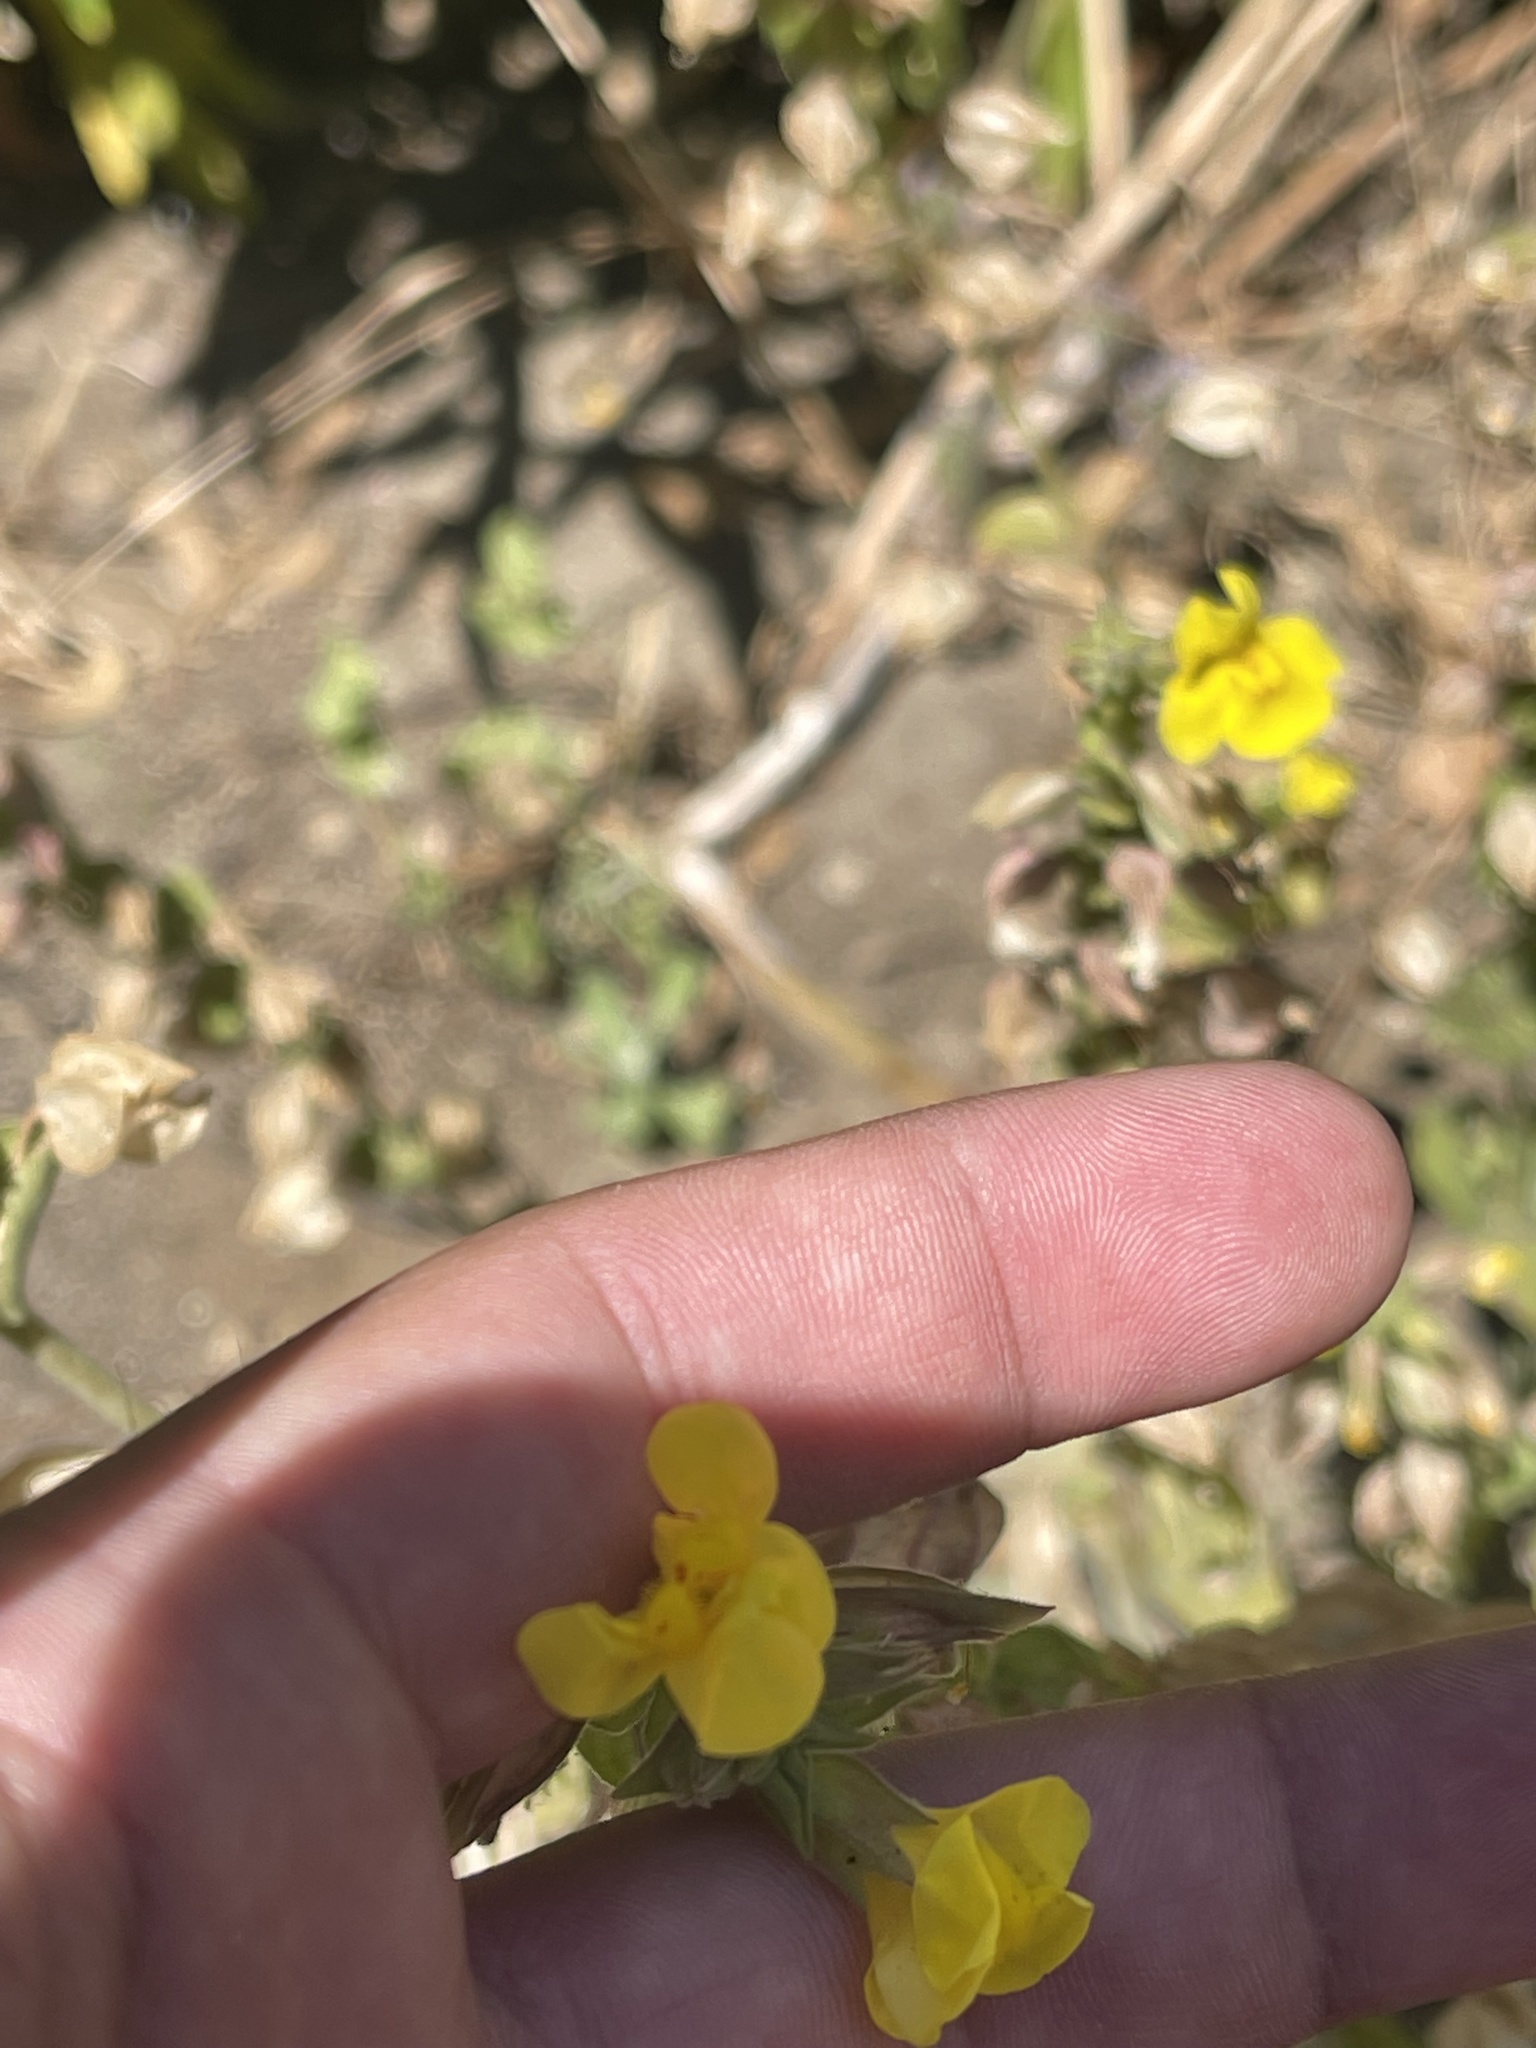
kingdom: Plantae
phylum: Tracheophyta
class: Magnoliopsida
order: Lamiales
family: Phrymaceae
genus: Erythranthe
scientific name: Erythranthe guttata
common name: Monkeyflower
